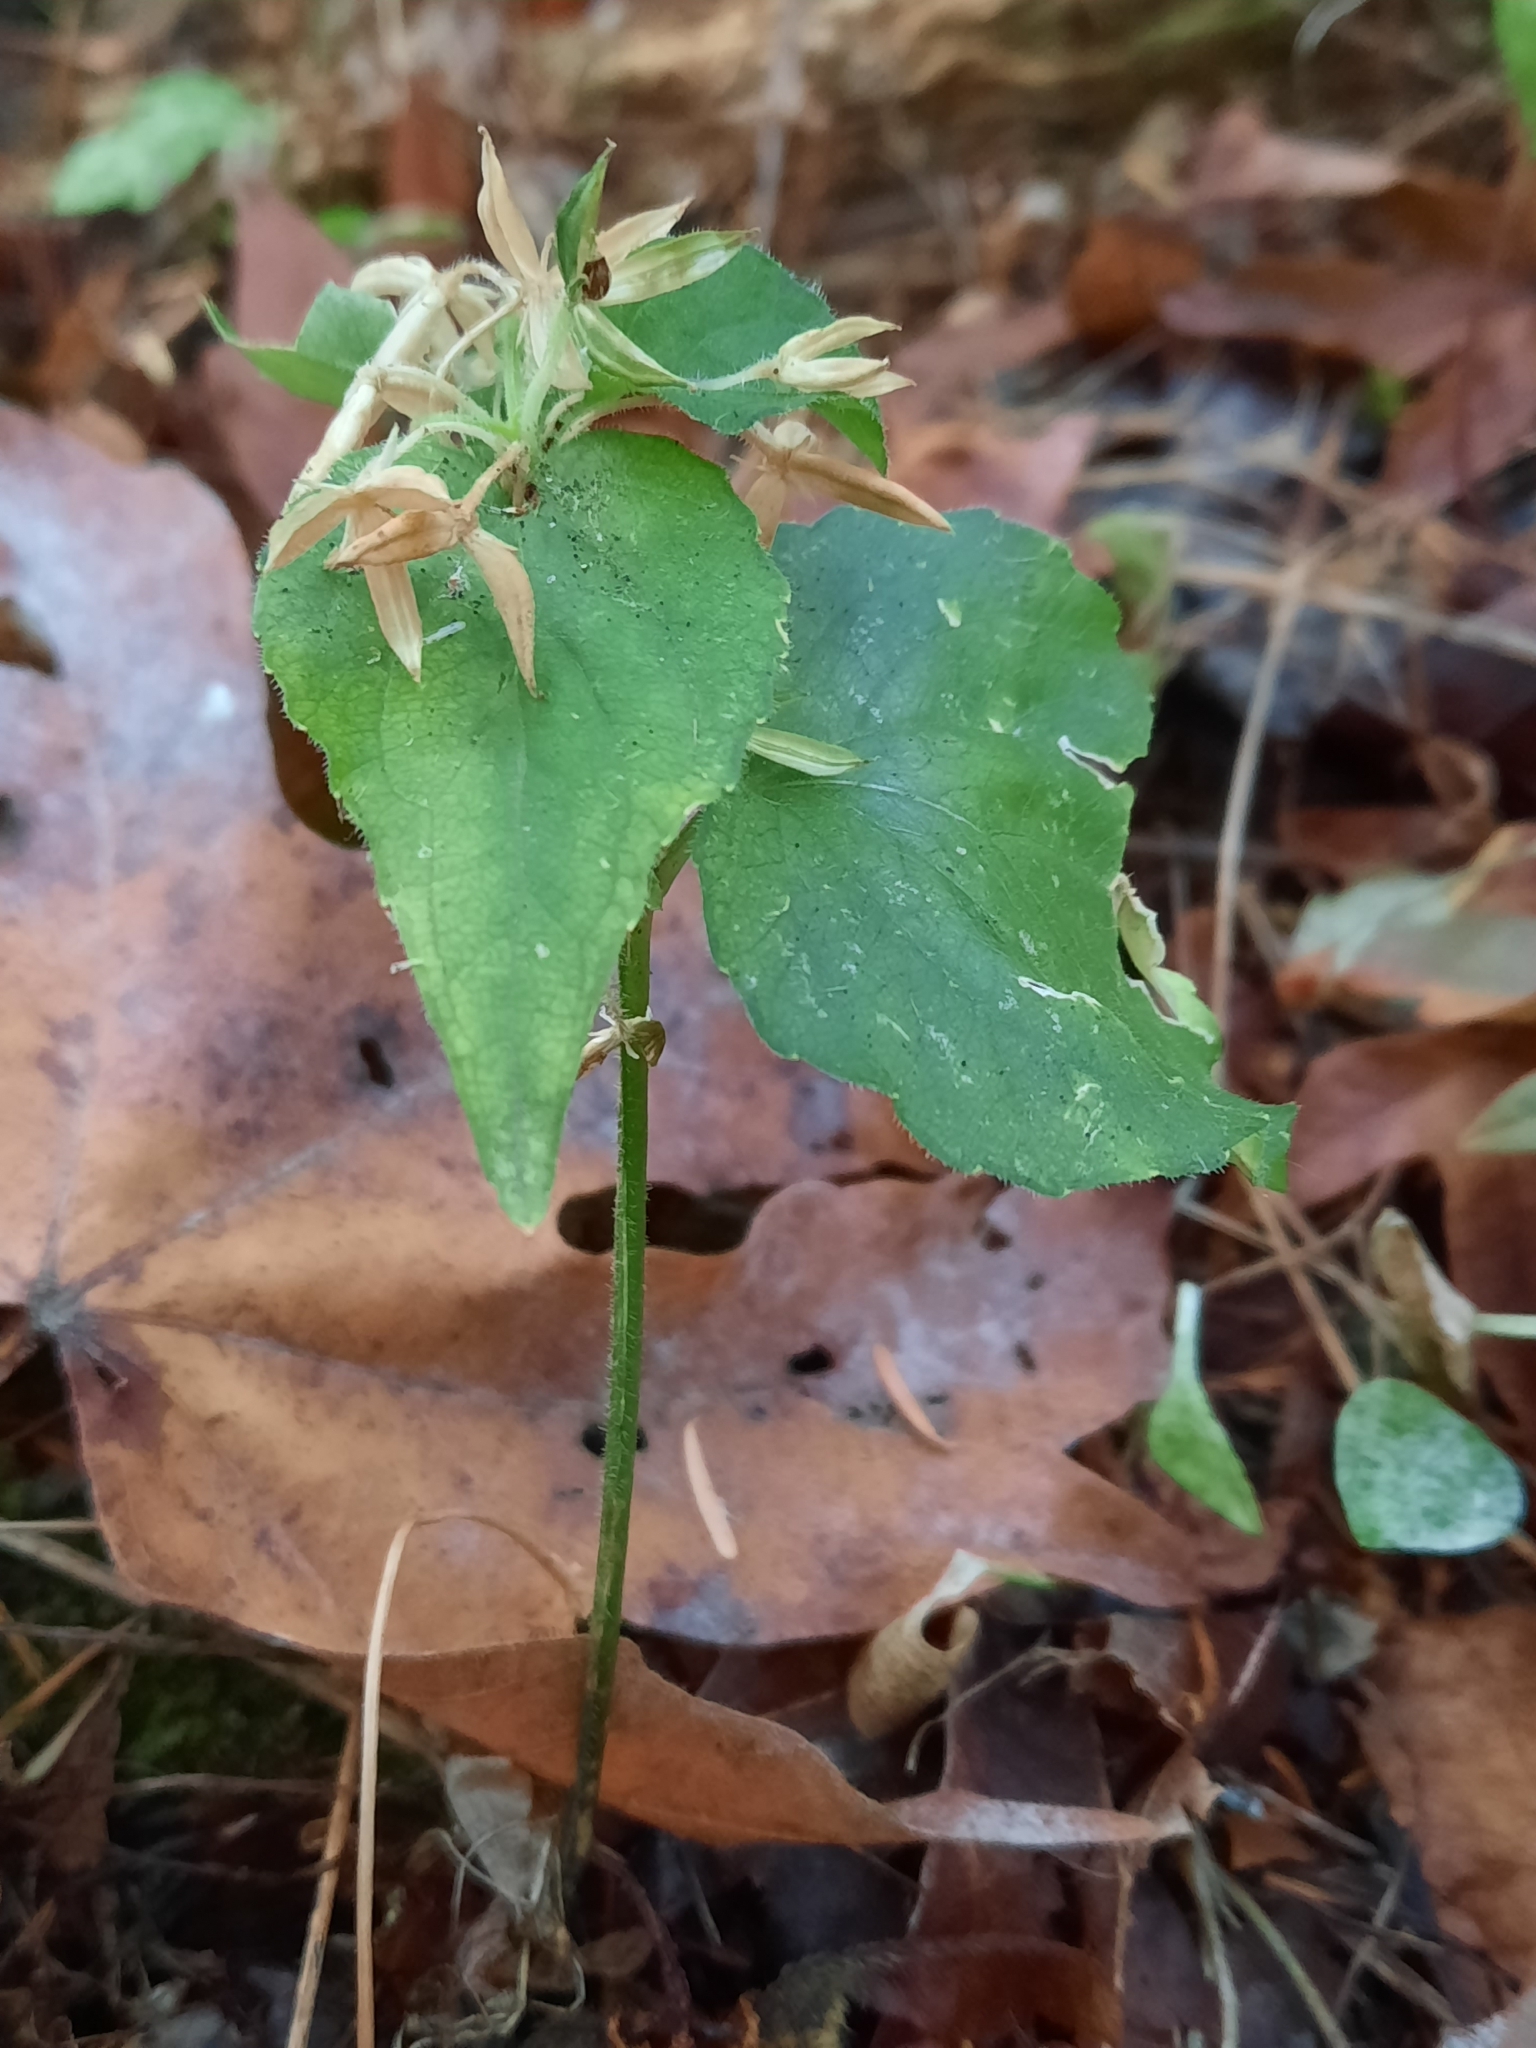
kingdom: Plantae
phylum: Tracheophyta
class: Magnoliopsida
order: Malpighiales
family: Violaceae
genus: Viola
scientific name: Viola glabella
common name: Stream violet
